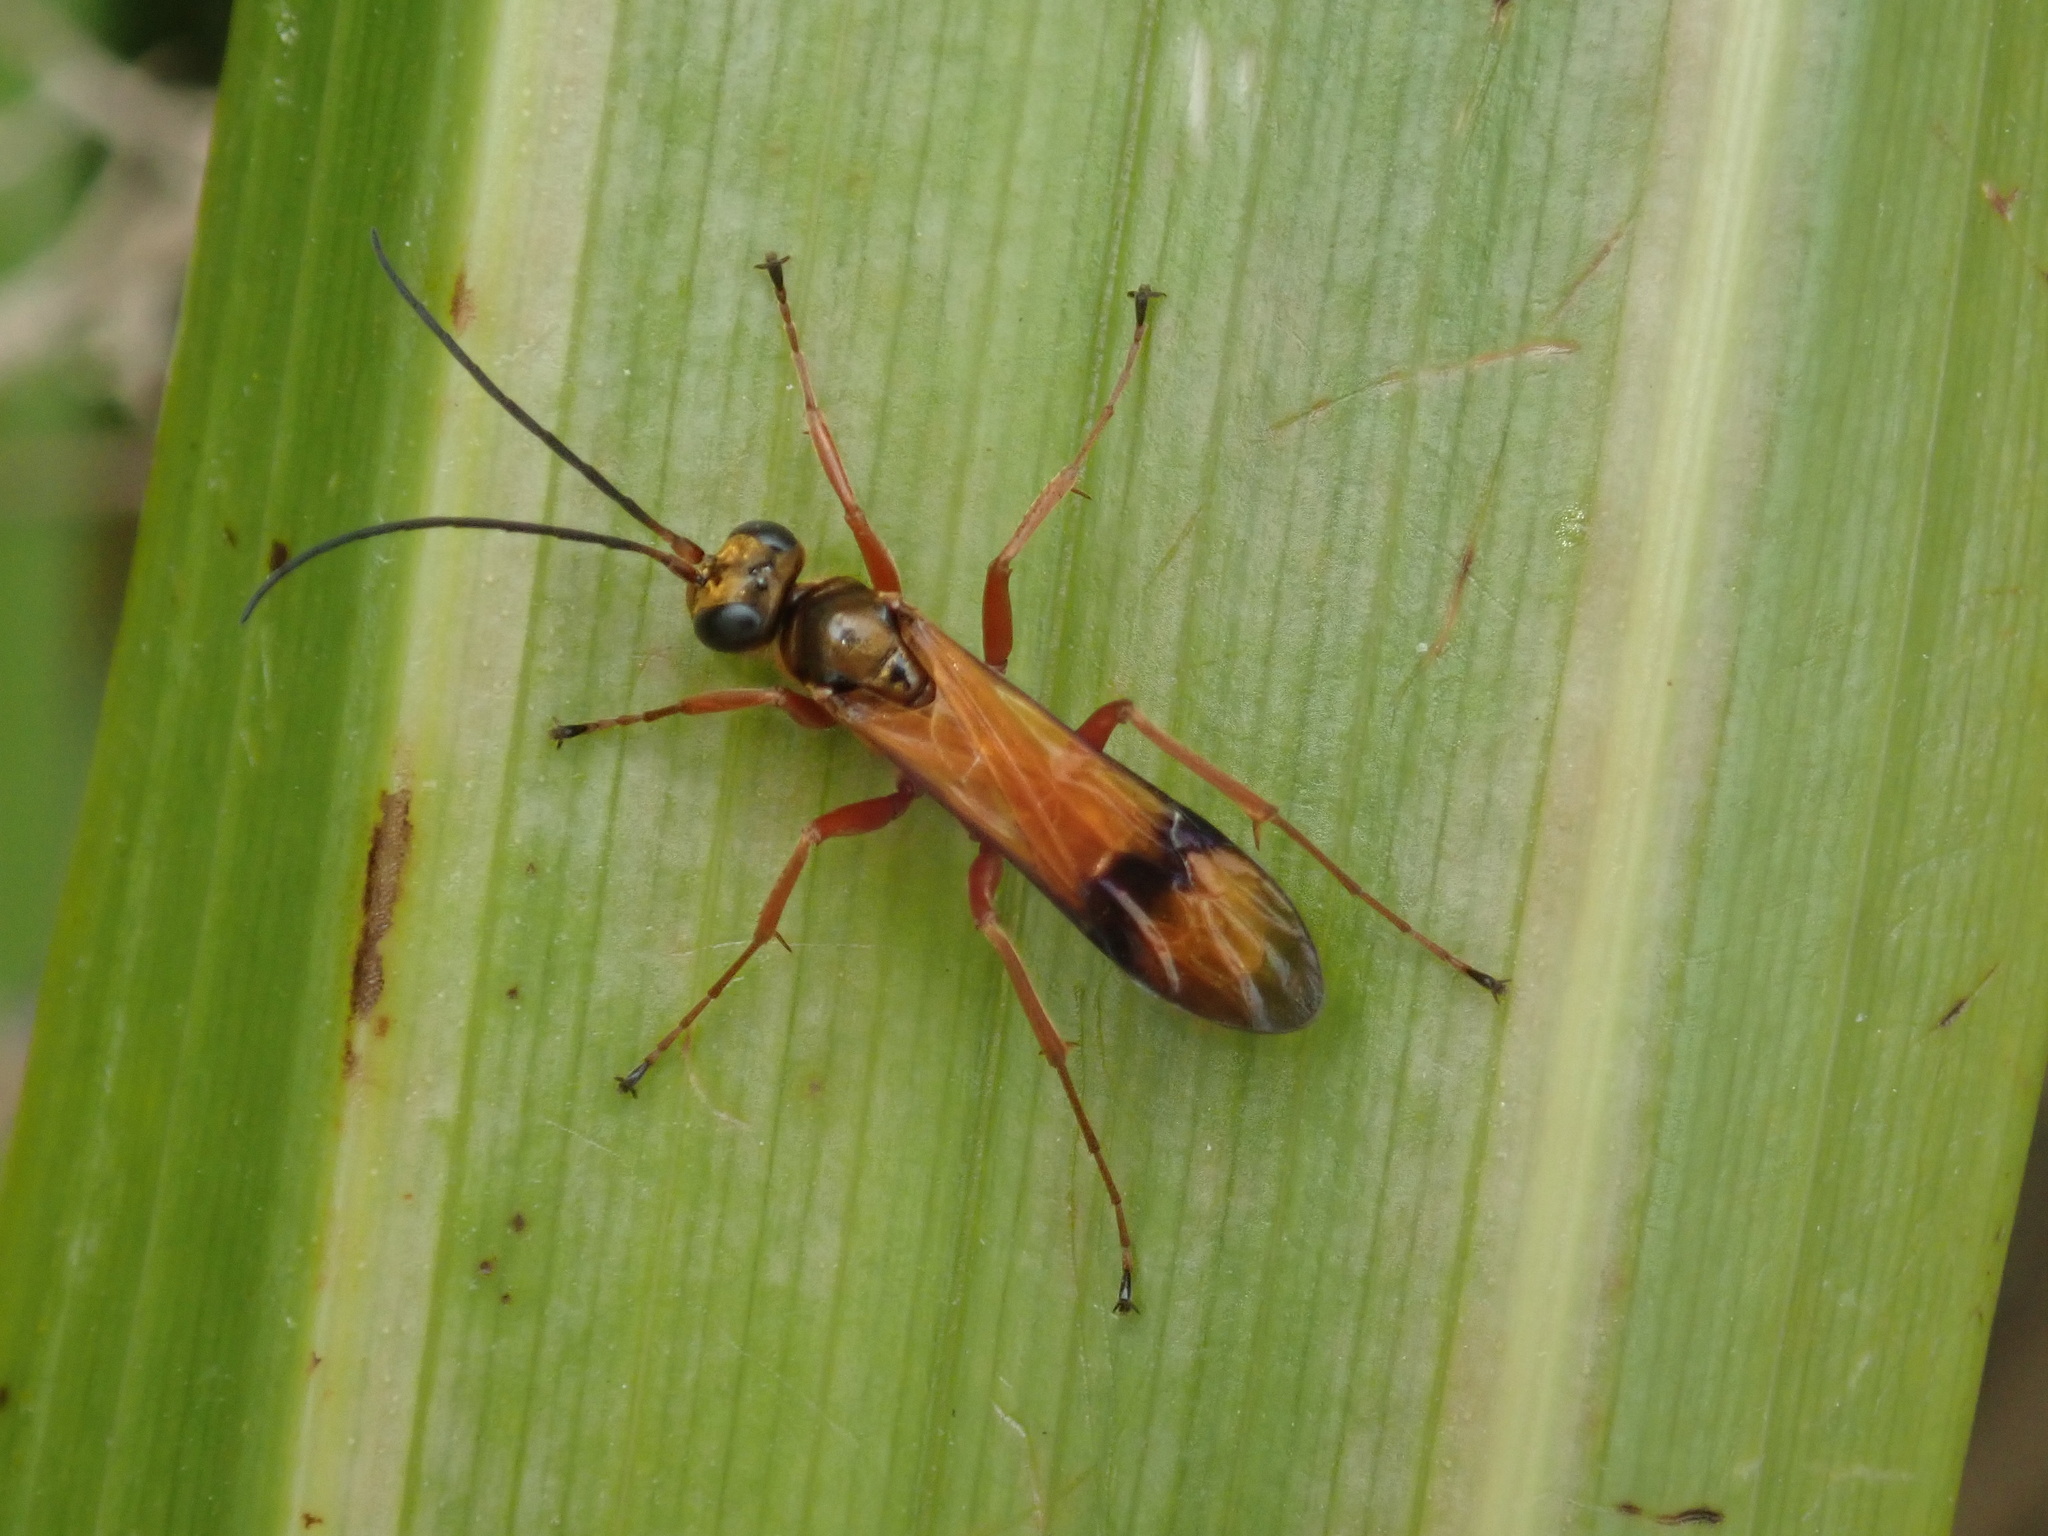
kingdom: Animalia
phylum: Arthropoda
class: Insecta
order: Hymenoptera
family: Pompilidae
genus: Sphictostethus
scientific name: Sphictostethus fugax
